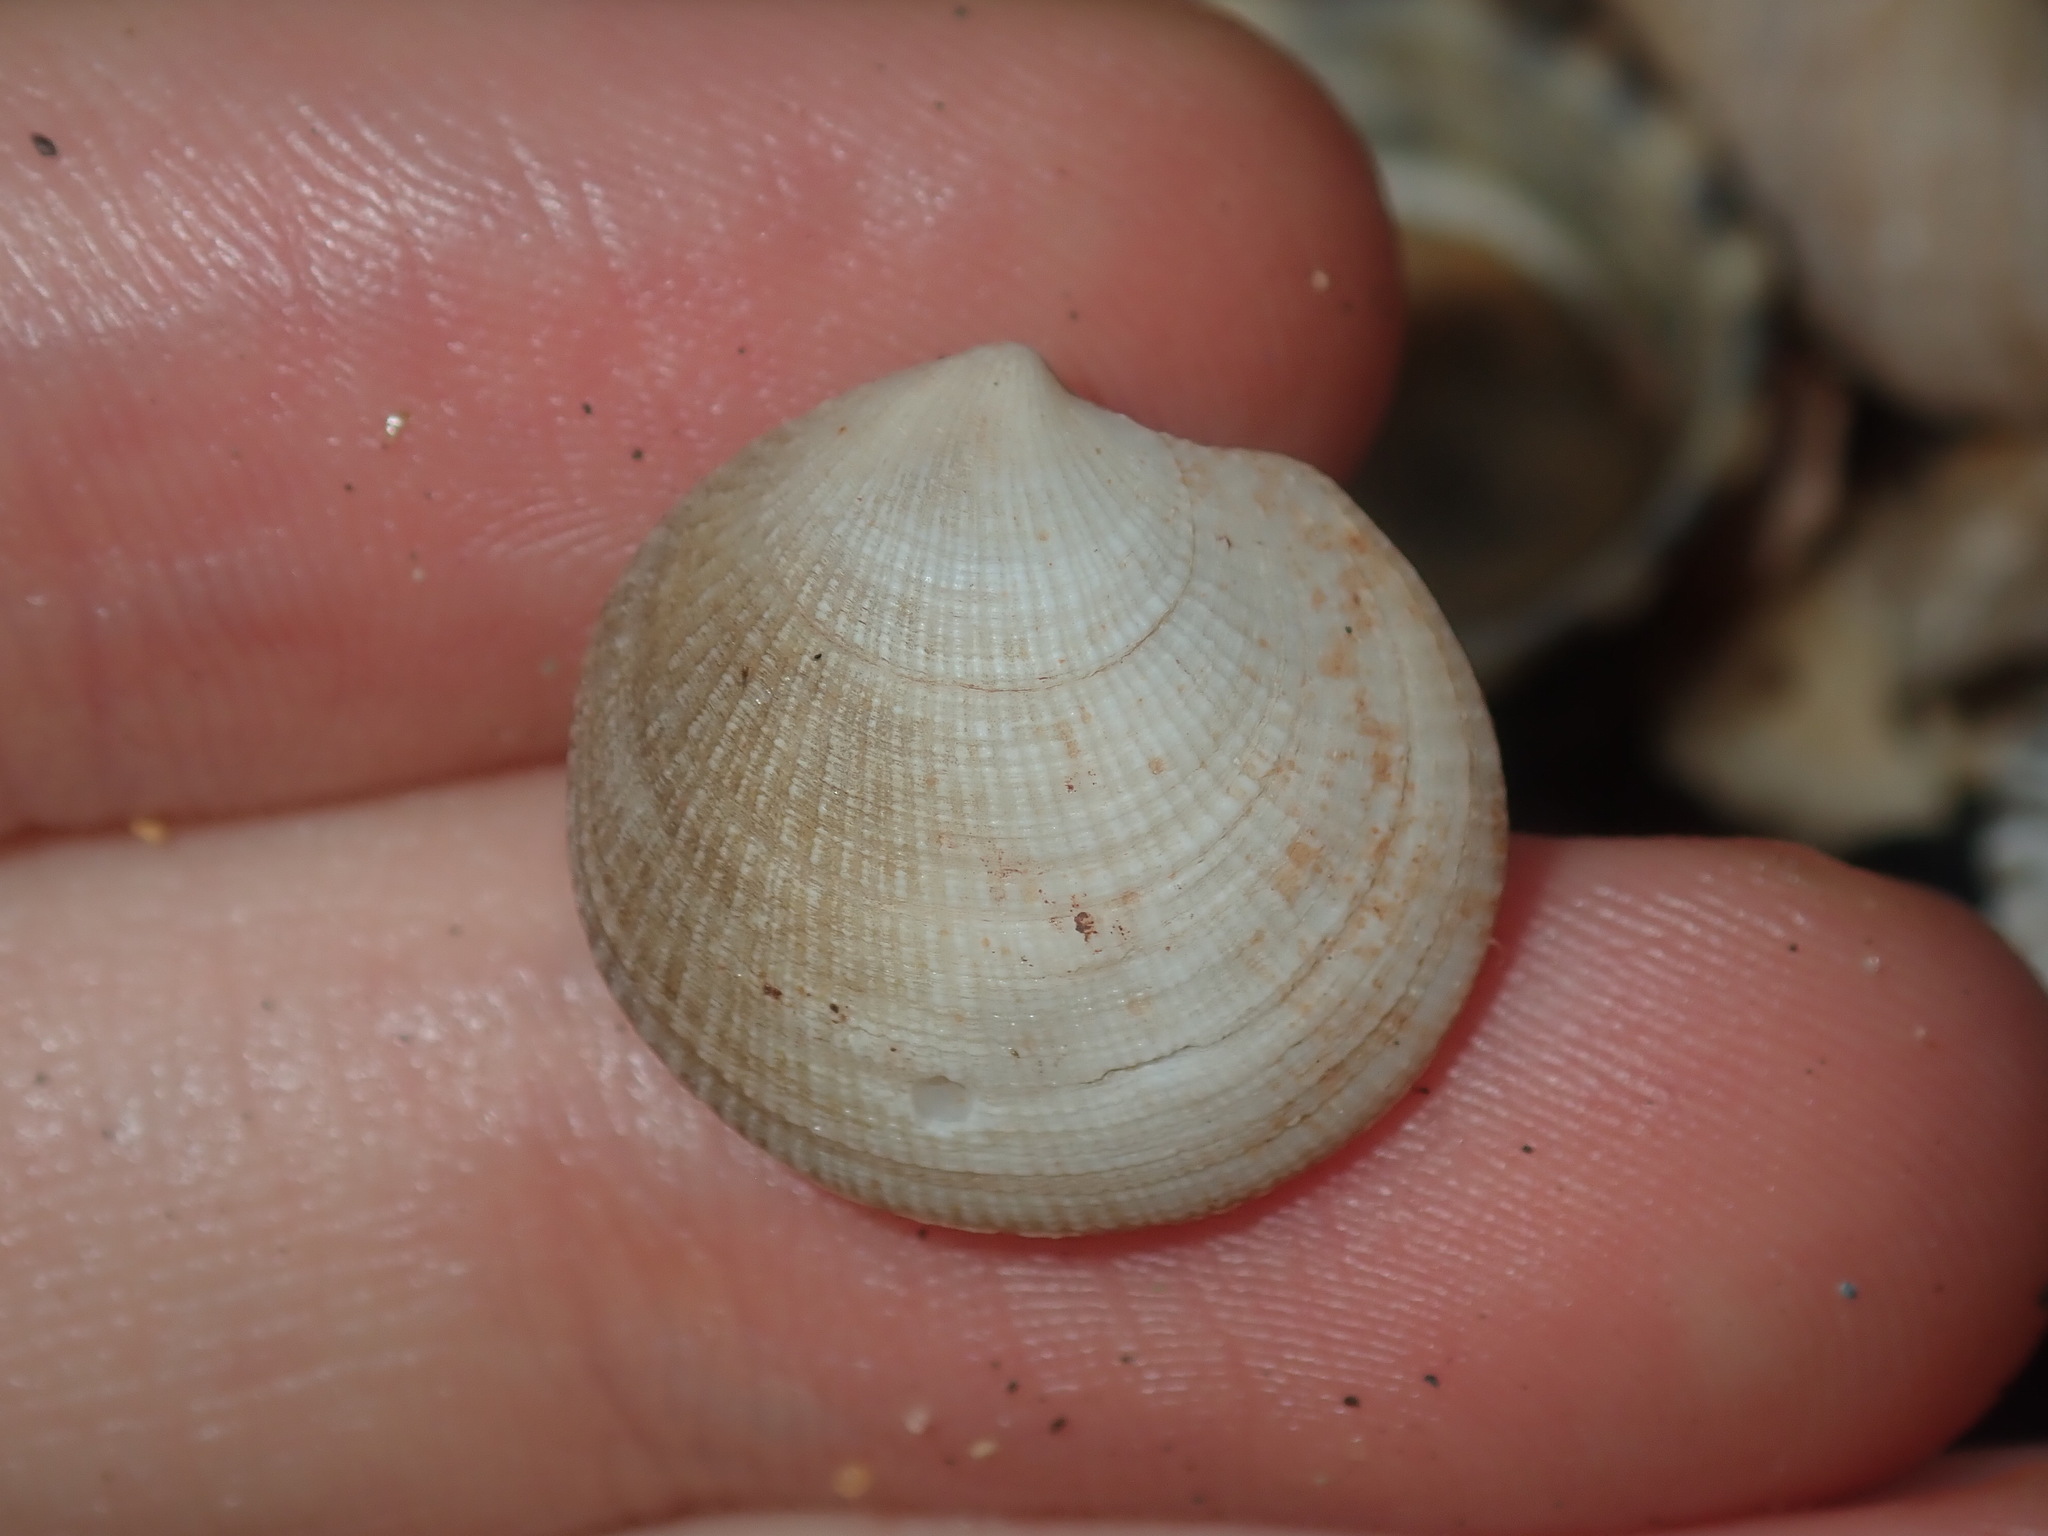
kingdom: Animalia
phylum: Mollusca
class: Bivalvia
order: Lucinida
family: Lucinidae
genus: Ctena
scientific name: Ctena bella
